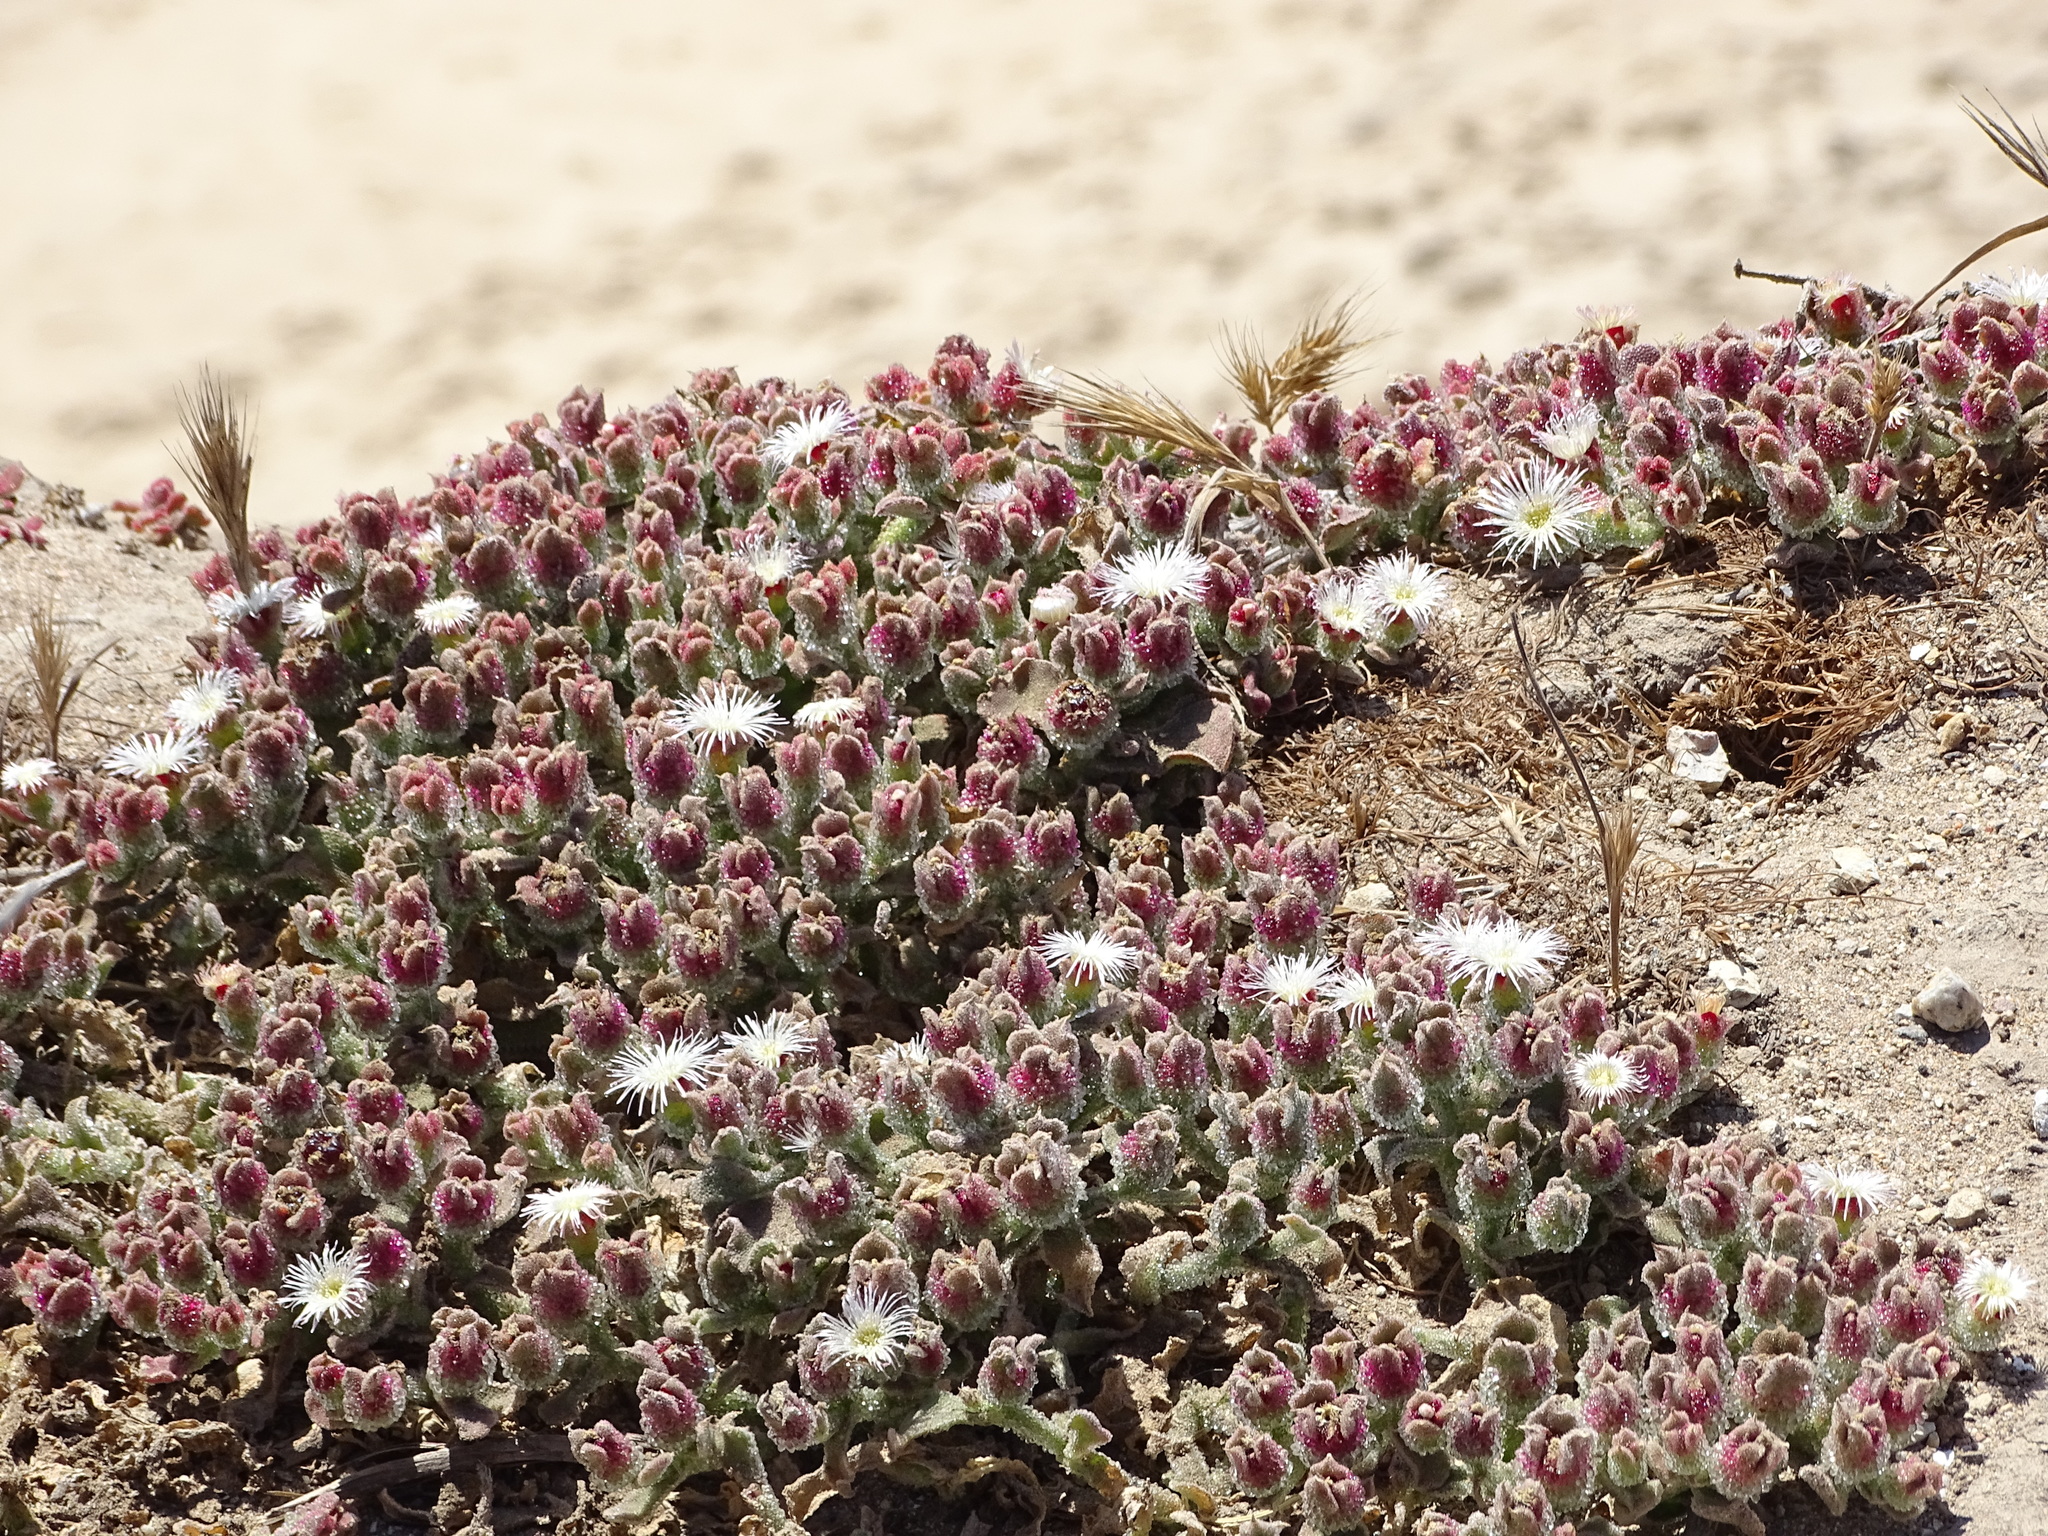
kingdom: Plantae
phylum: Tracheophyta
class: Magnoliopsida
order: Caryophyllales
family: Aizoaceae
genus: Mesembryanthemum
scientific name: Mesembryanthemum crystallinum
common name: Common iceplant
